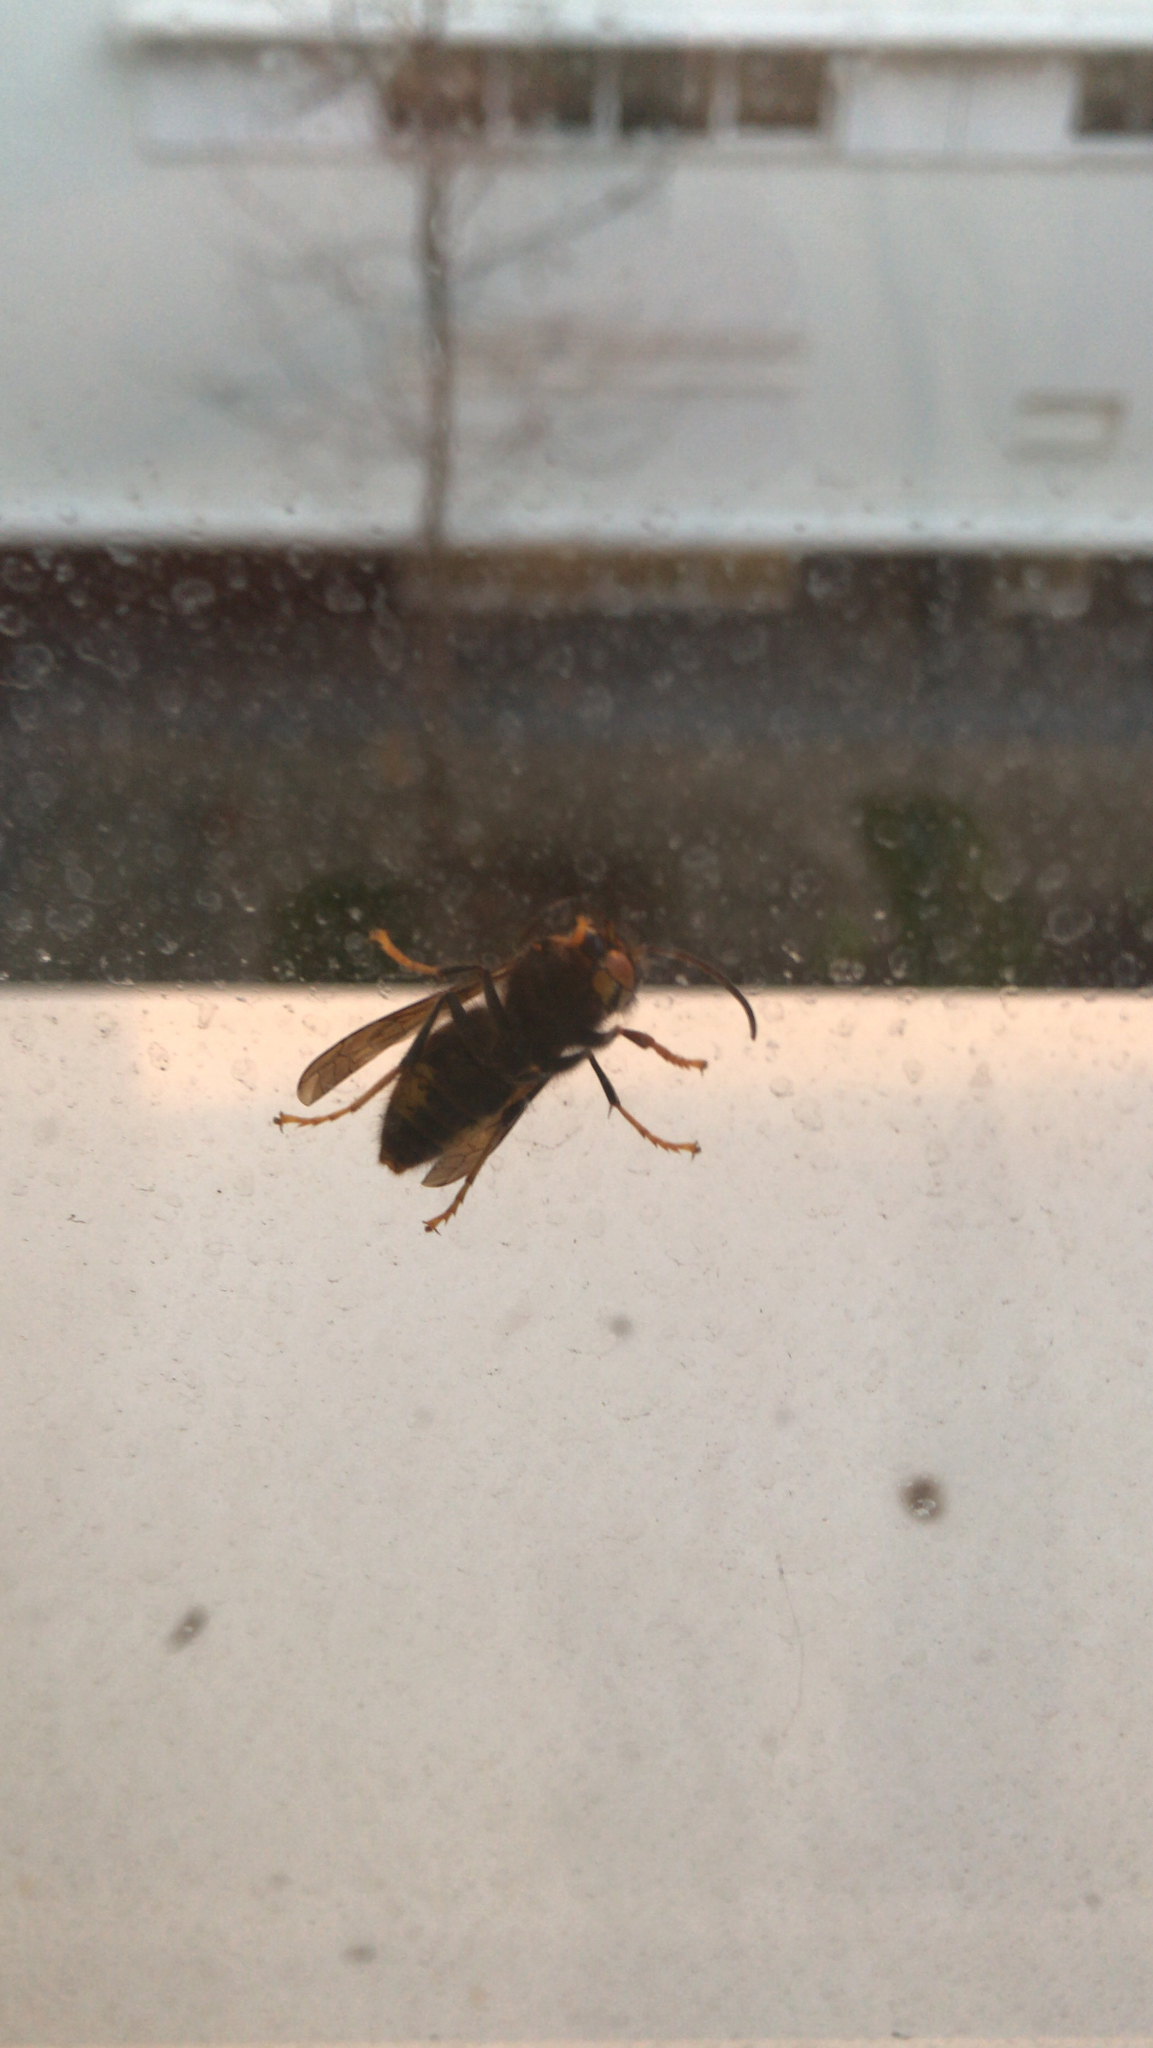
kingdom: Animalia
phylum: Arthropoda
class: Insecta
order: Hymenoptera
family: Vespidae
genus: Vespa
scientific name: Vespa velutina
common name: Asian hornet
